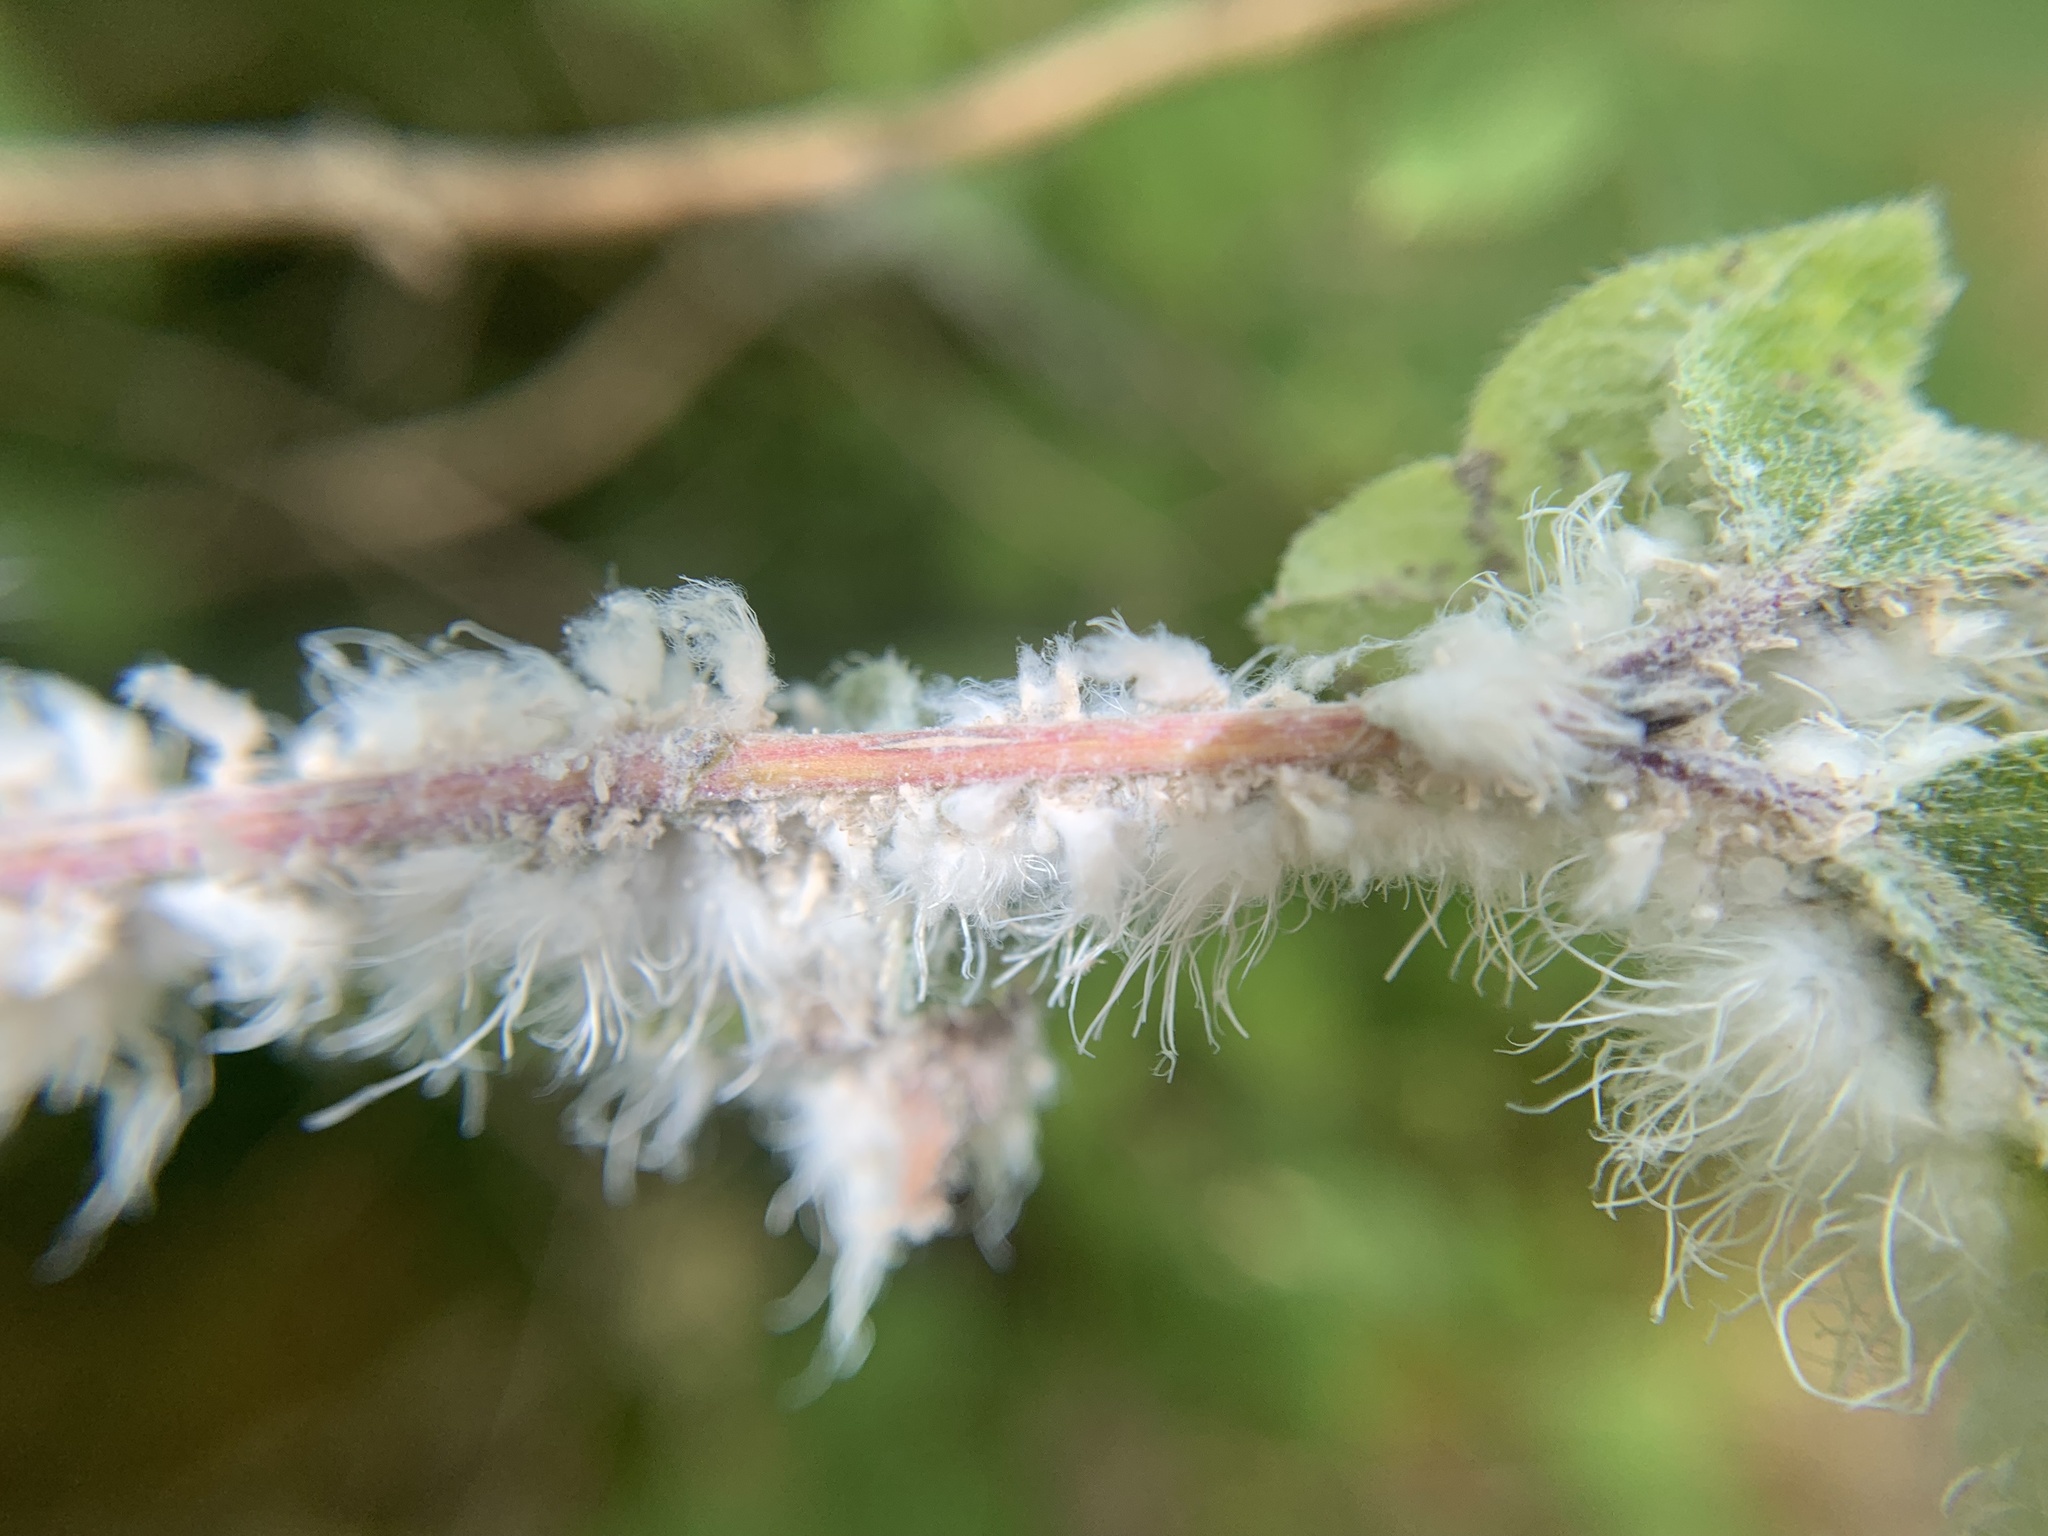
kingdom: Animalia
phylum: Arthropoda
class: Insecta
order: Hemiptera
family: Aphididae
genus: Prociphilus
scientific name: Prociphilus xylostei
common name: Aphid
